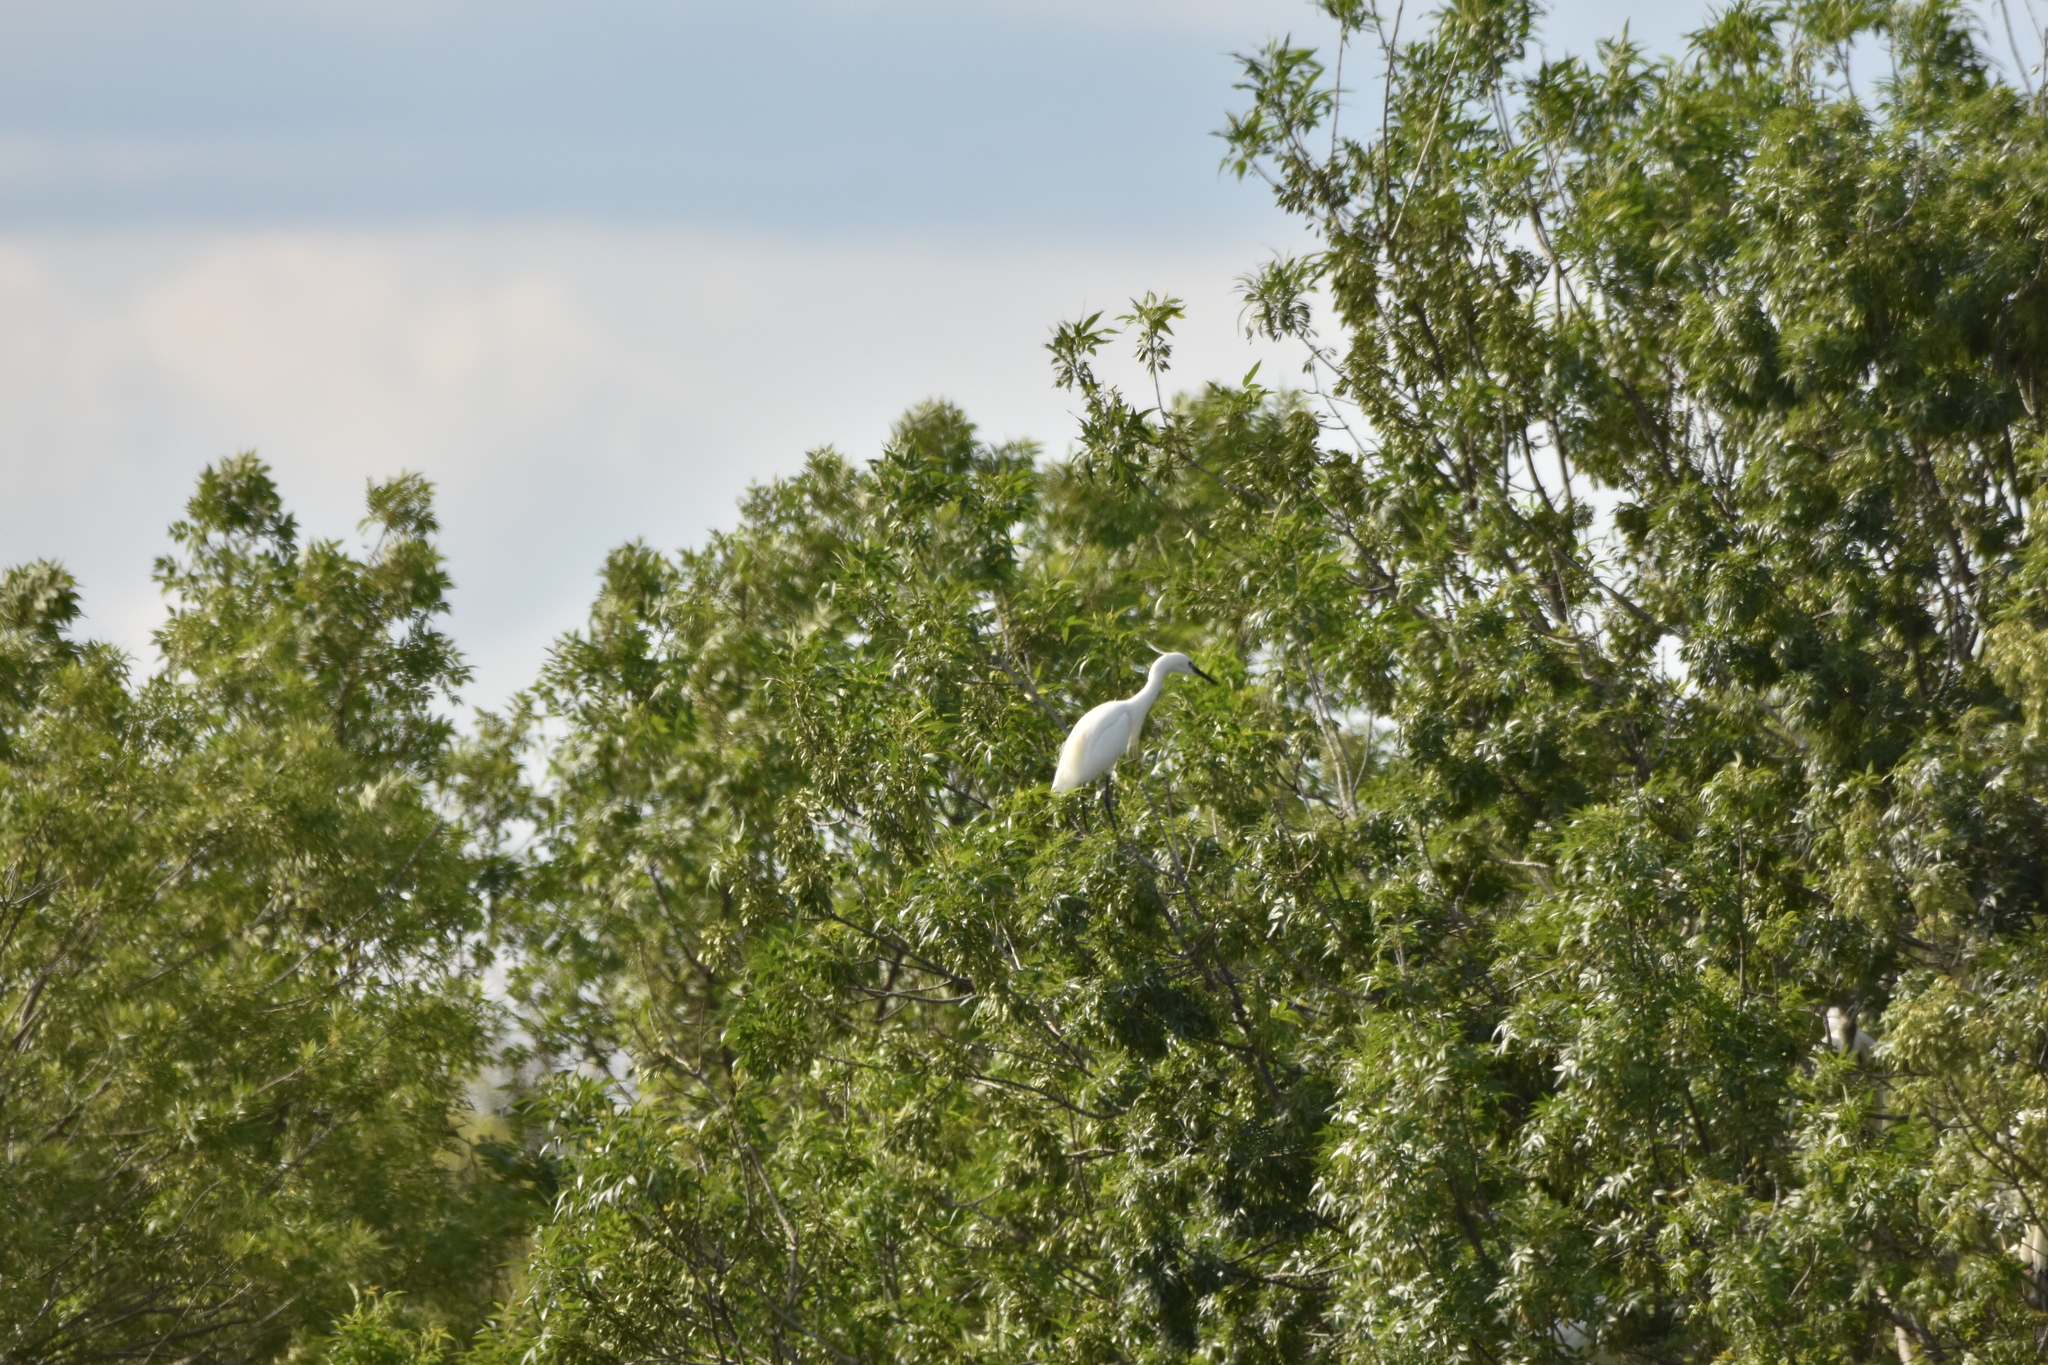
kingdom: Animalia
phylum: Chordata
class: Aves
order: Pelecaniformes
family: Ardeidae
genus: Egretta
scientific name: Egretta garzetta
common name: Little egret
